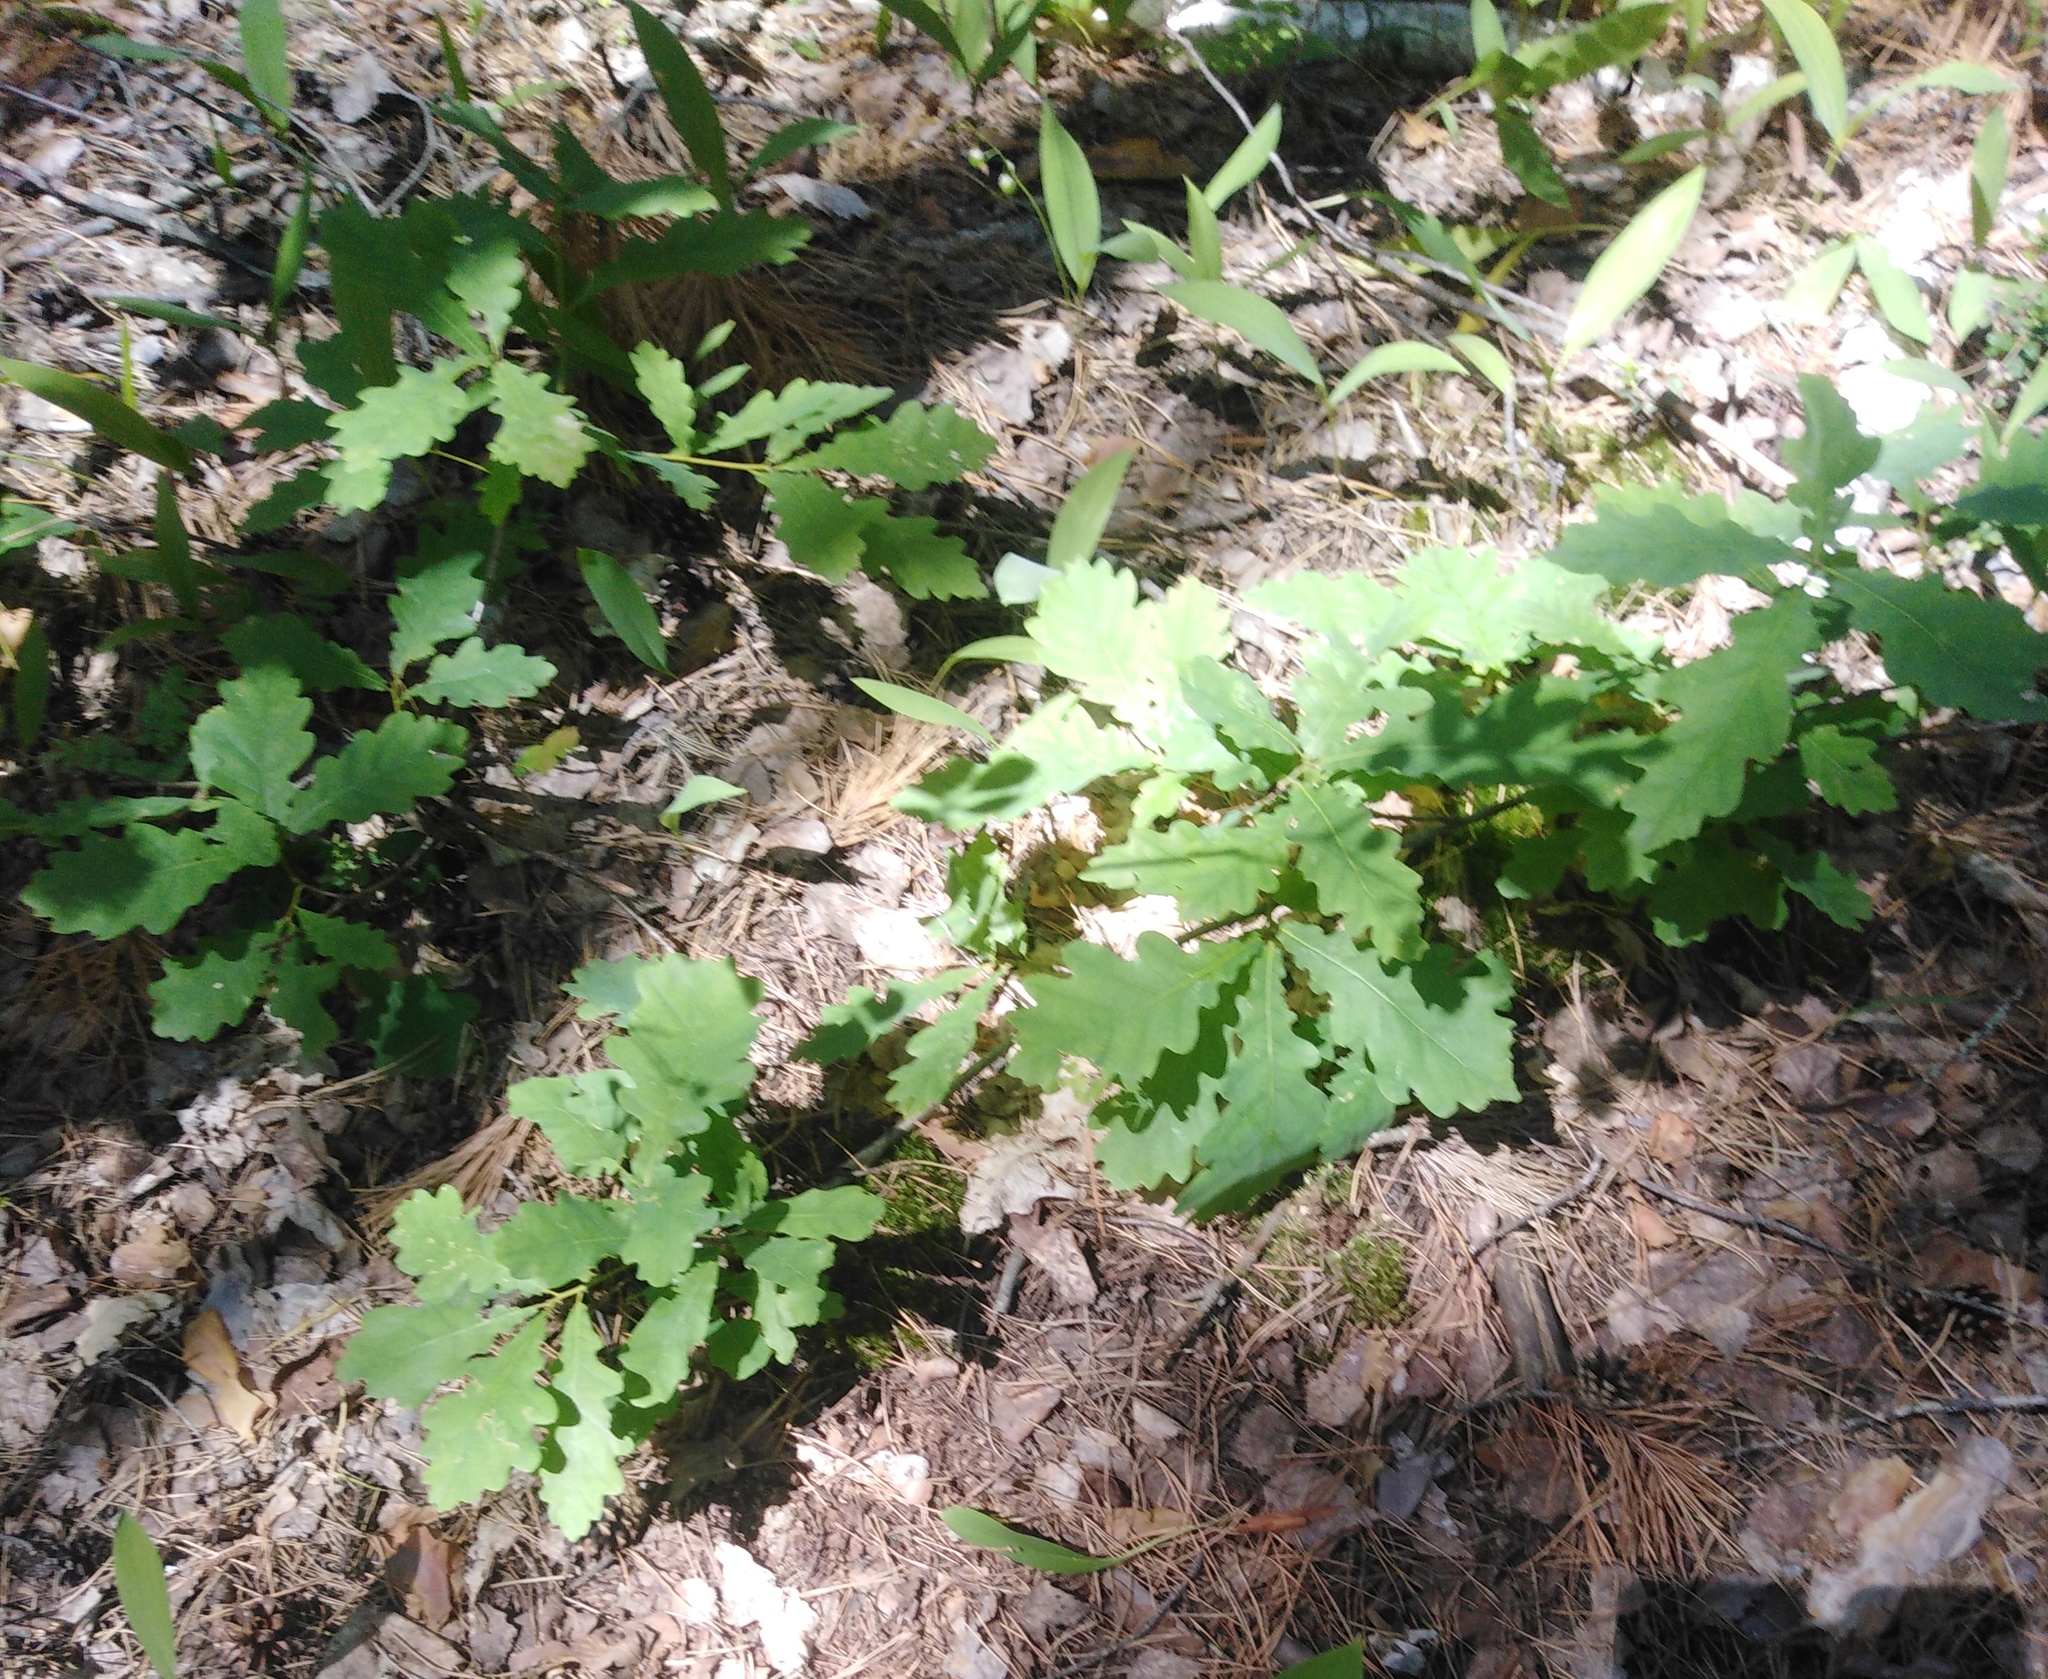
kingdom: Plantae
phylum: Tracheophyta
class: Magnoliopsida
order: Fagales
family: Fagaceae
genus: Quercus
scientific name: Quercus robur
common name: Pedunculate oak
